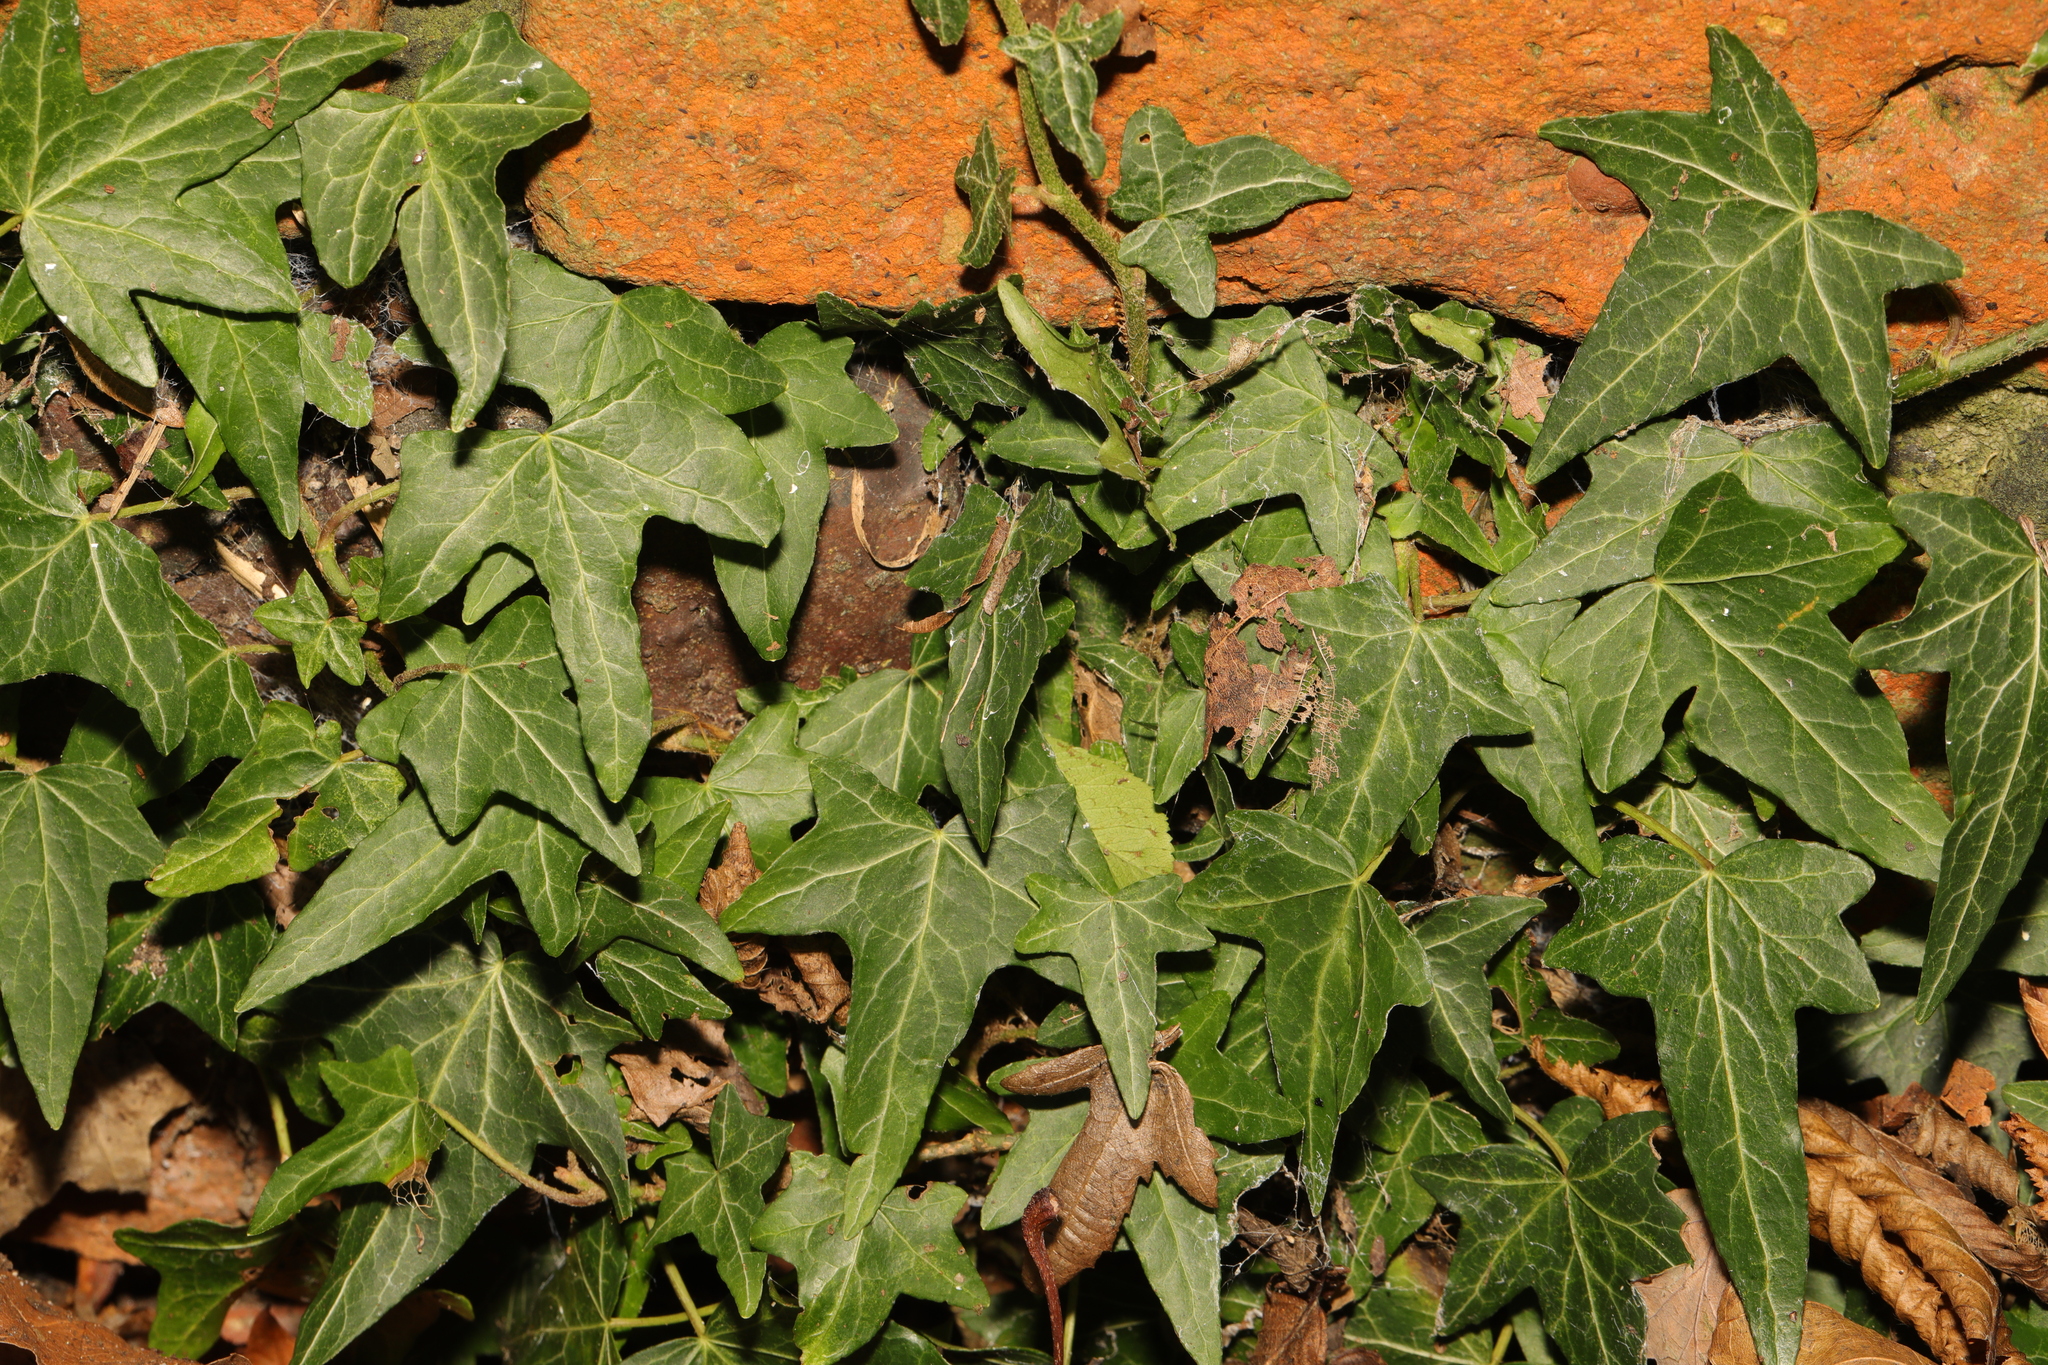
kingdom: Plantae
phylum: Tracheophyta
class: Magnoliopsida
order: Apiales
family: Araliaceae
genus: Hedera
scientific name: Hedera helix
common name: Ivy
